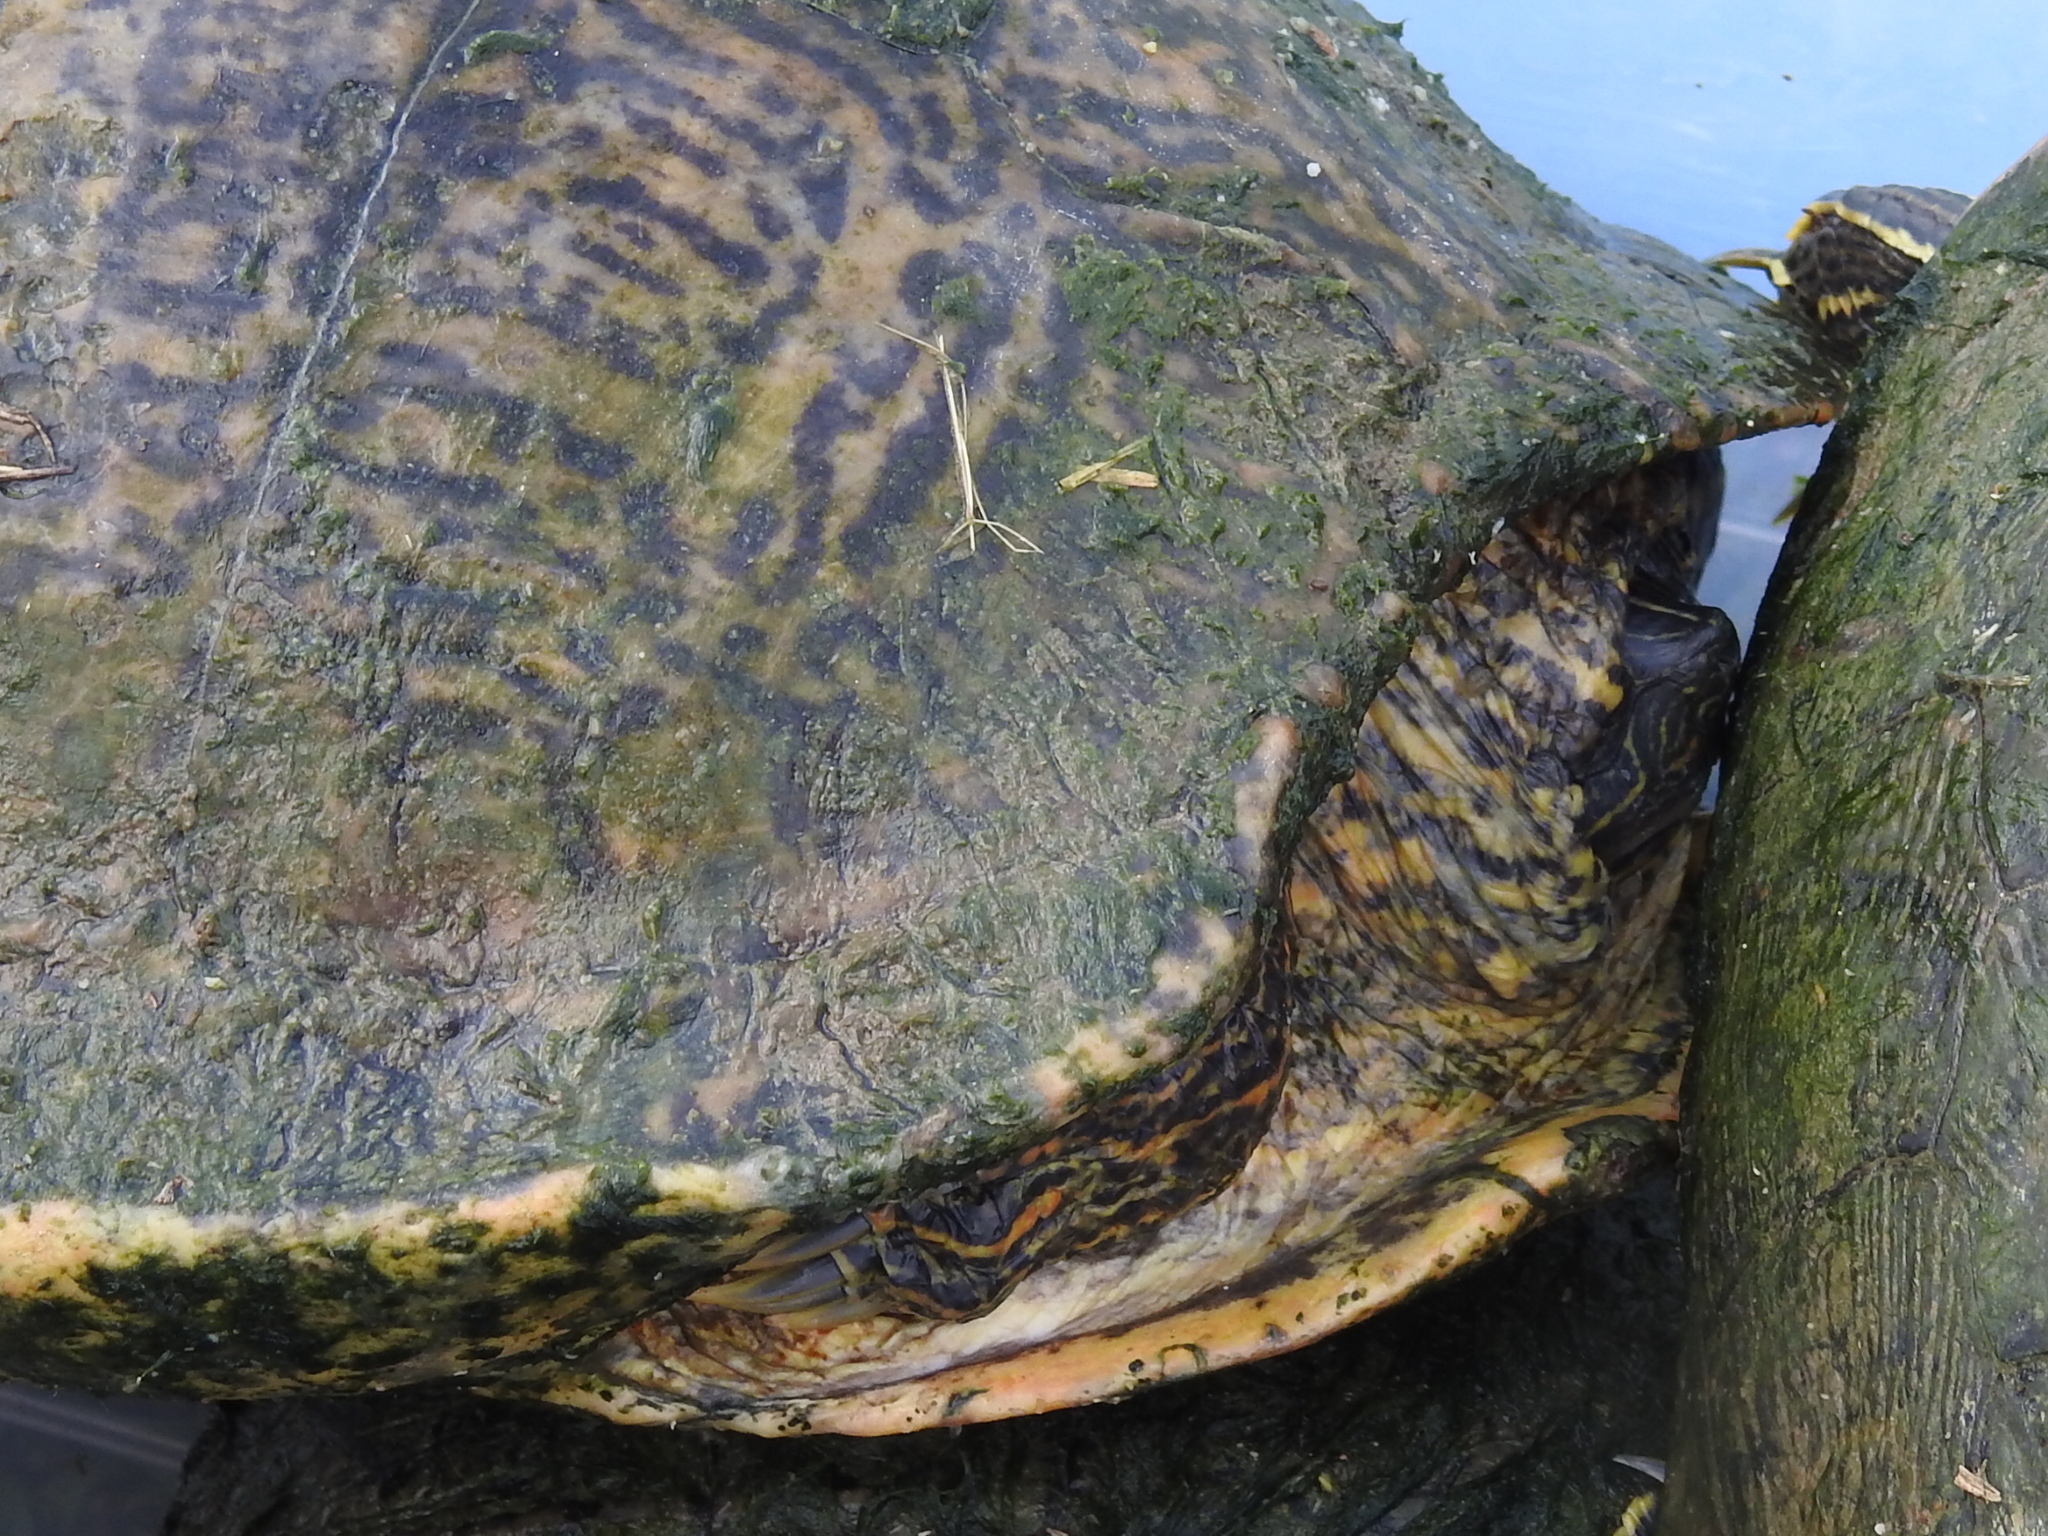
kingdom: Animalia
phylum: Chordata
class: Testudines
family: Emydidae
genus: Pseudemys
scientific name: Pseudemys texana
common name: Texas river cooter
